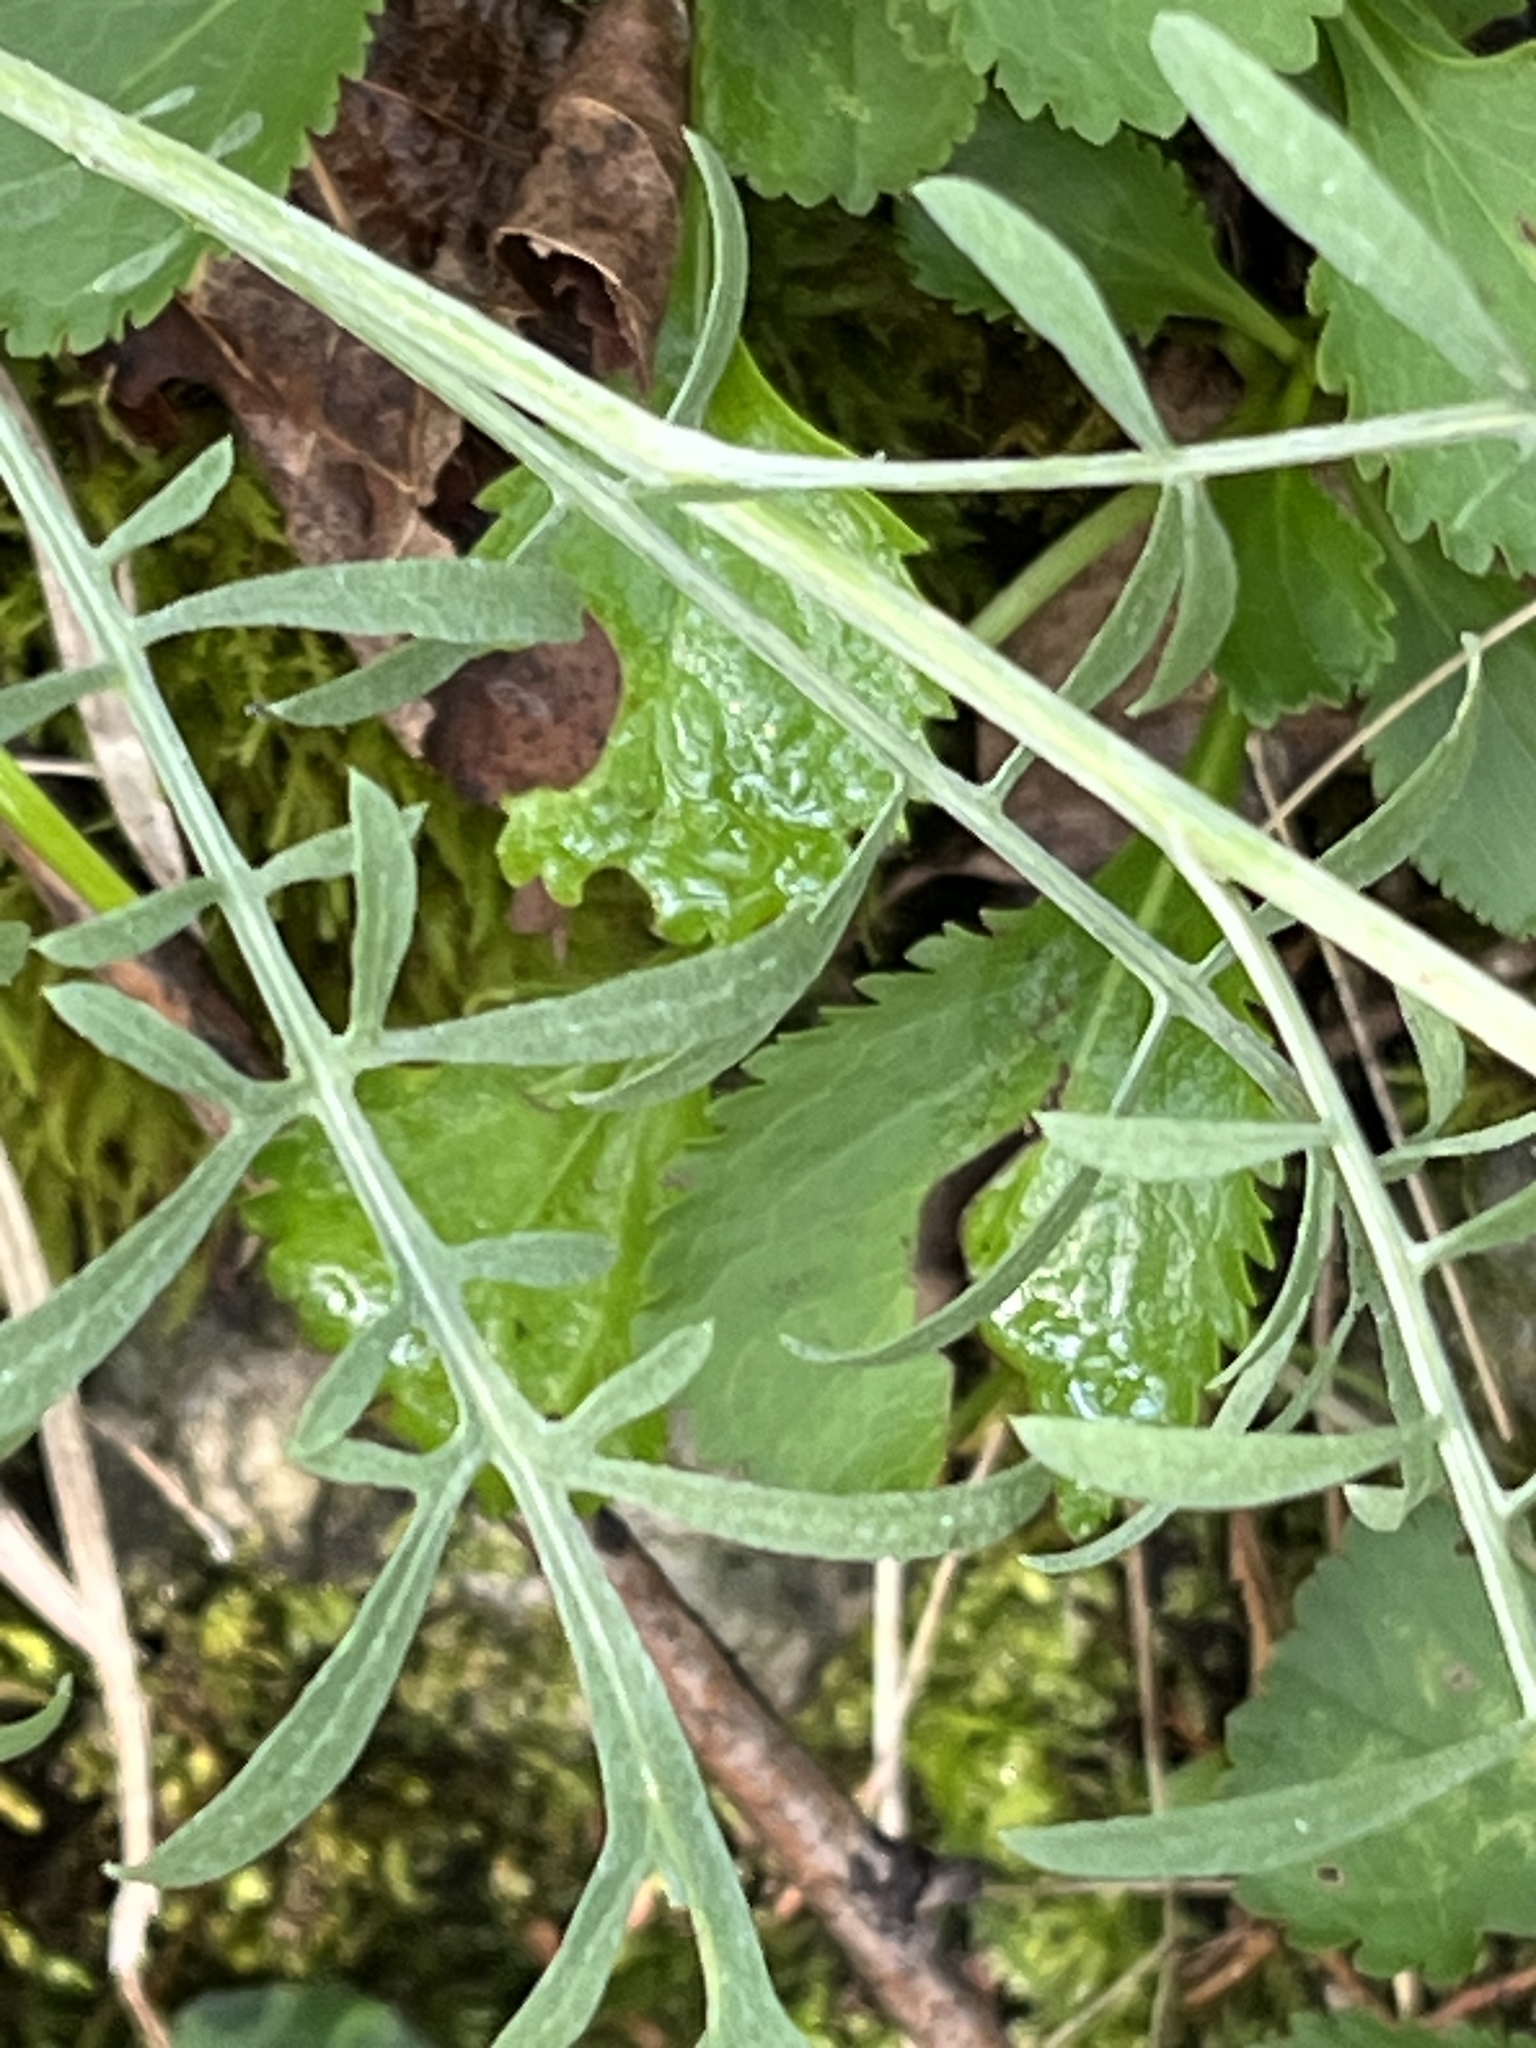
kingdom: Plantae
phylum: Tracheophyta
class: Magnoliopsida
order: Asterales
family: Asteraceae
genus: Centaurea
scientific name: Centaurea stoebe
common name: Spotted knapweed
